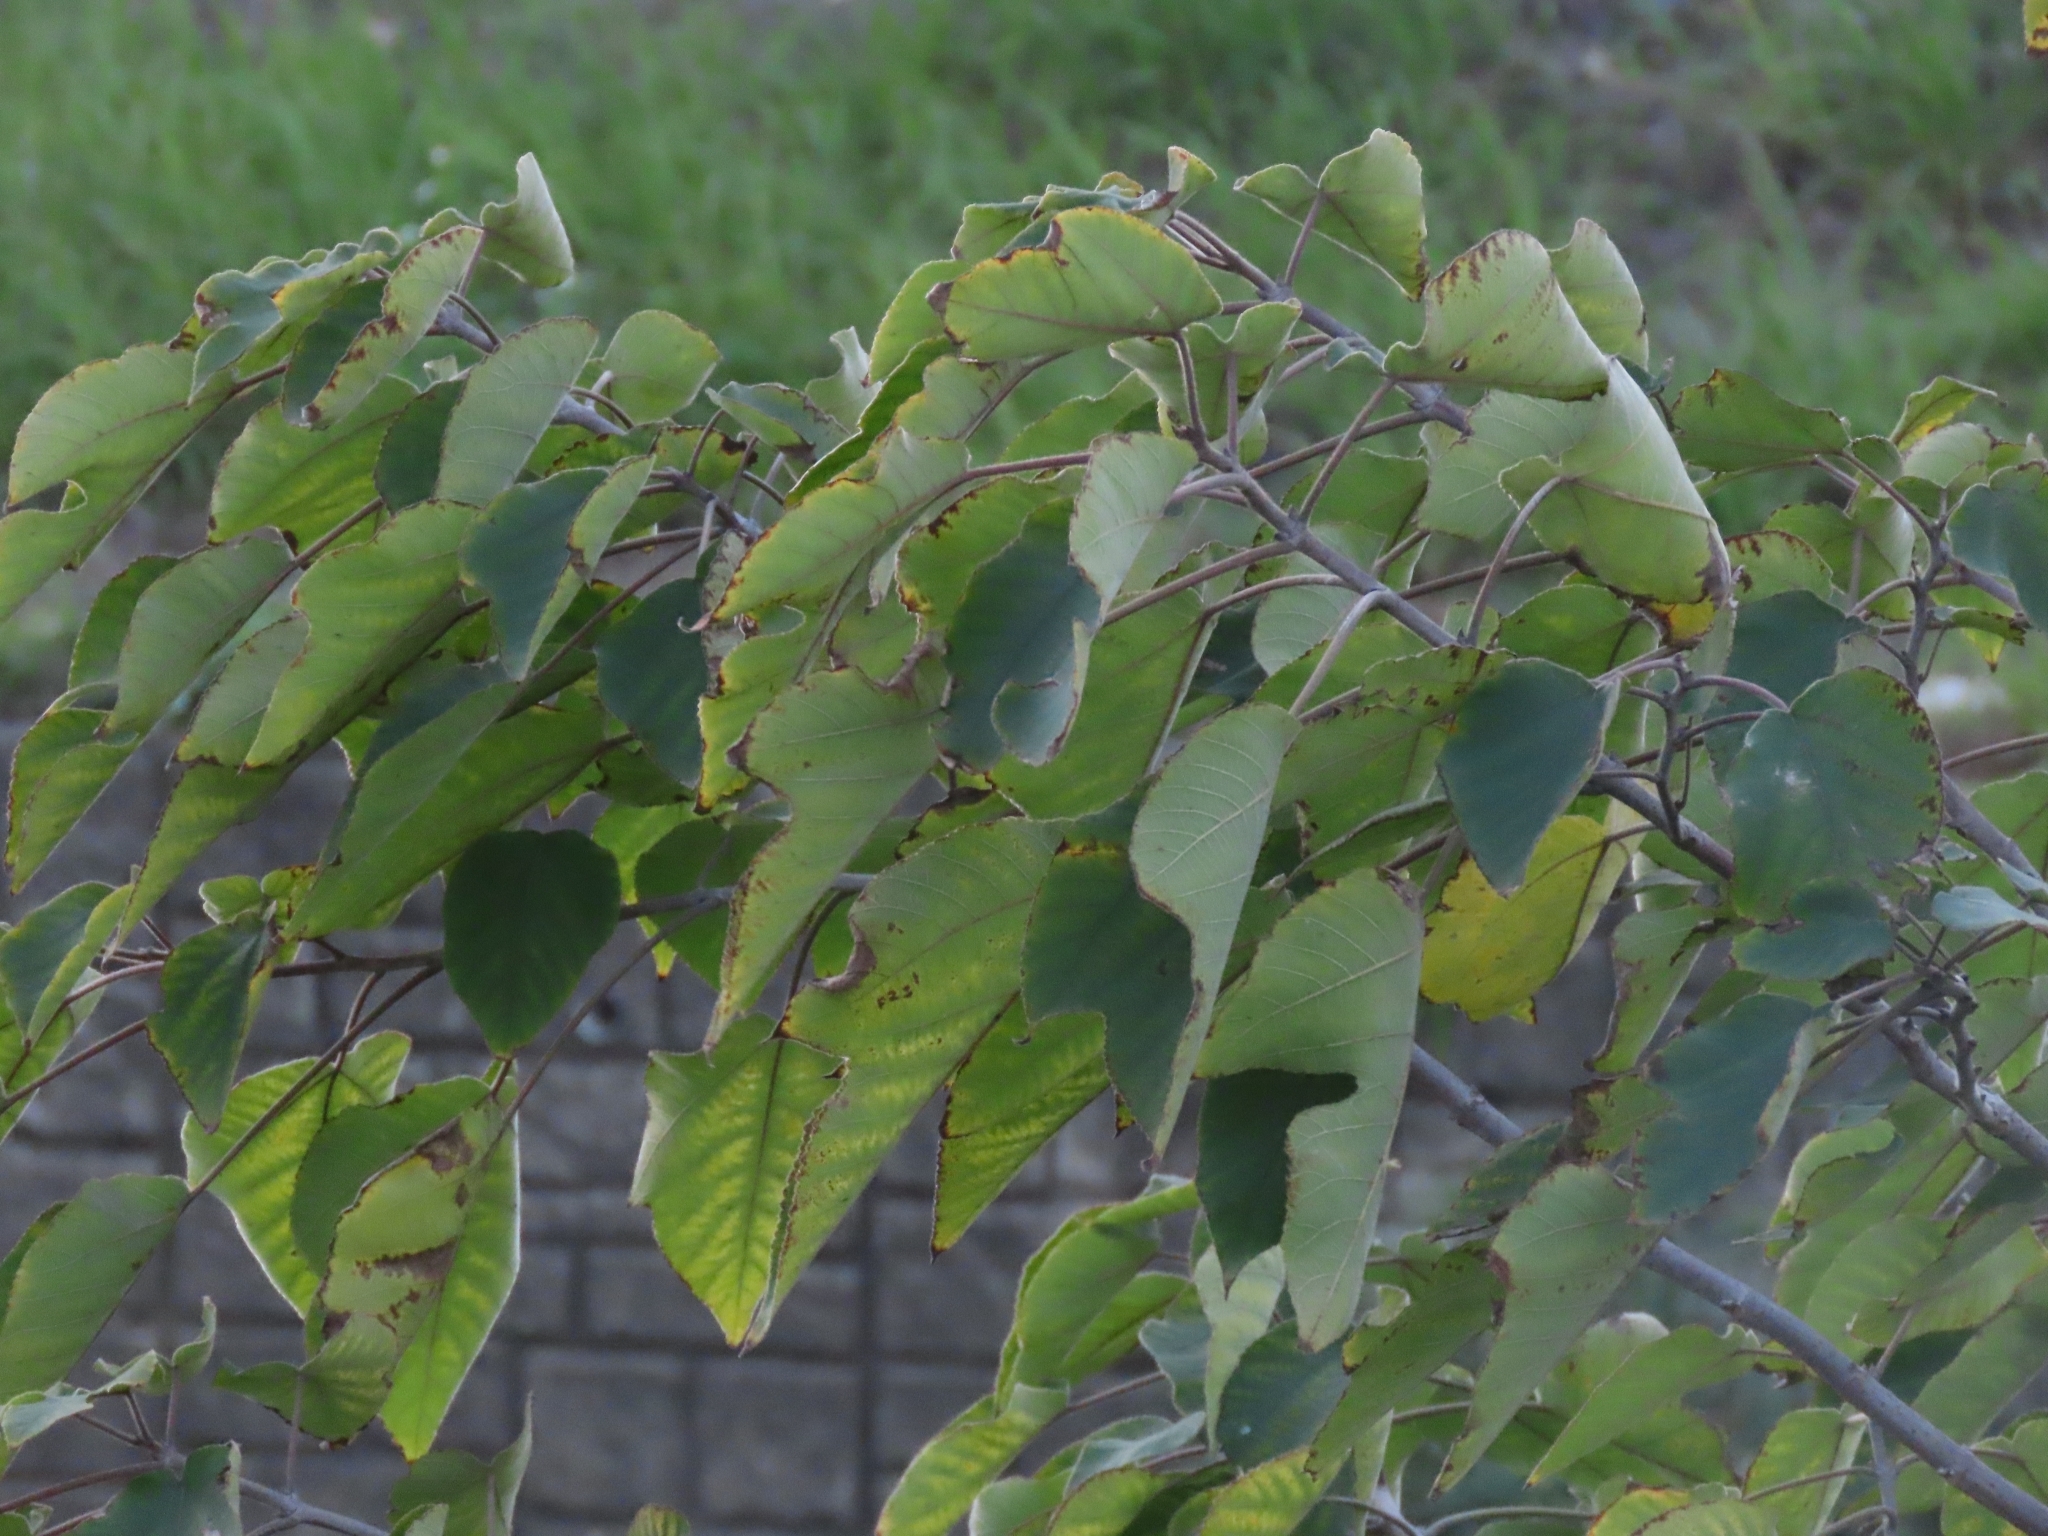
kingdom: Plantae
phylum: Tracheophyta
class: Magnoliopsida
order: Rosales
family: Moraceae
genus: Broussonetia
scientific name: Broussonetia papyrifera
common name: Paper mulberry
